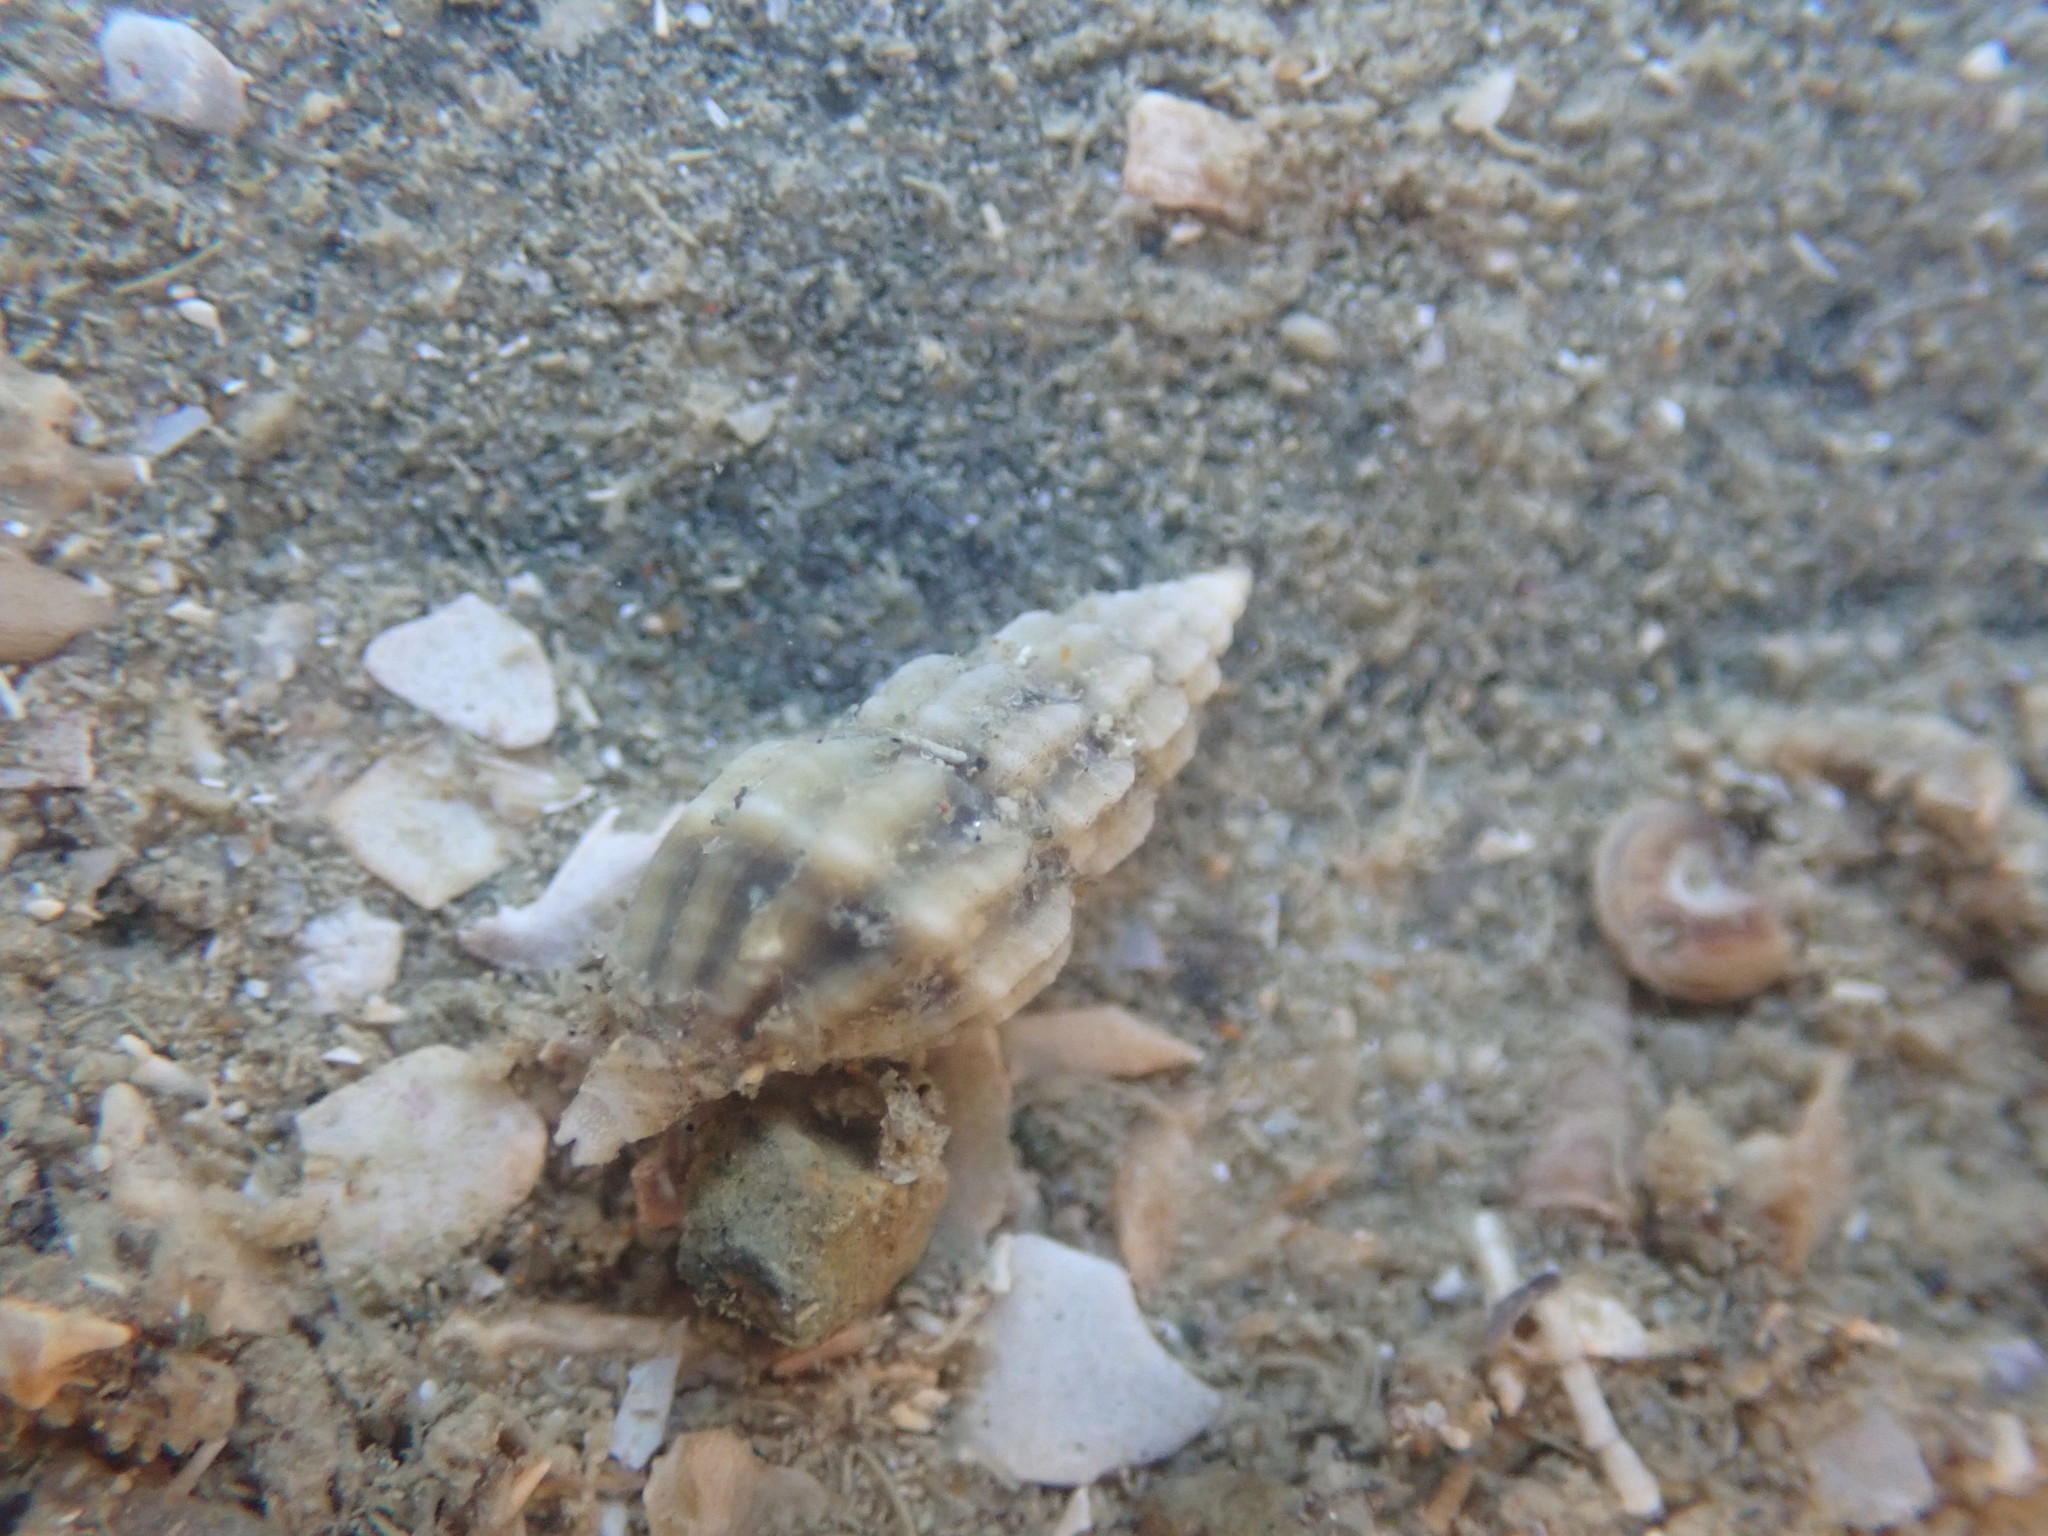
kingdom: Animalia
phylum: Mollusca
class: Gastropoda
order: Neogastropoda
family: Mangeliidae
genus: Neoguraleus
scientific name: Neoguraleus sinclairi
